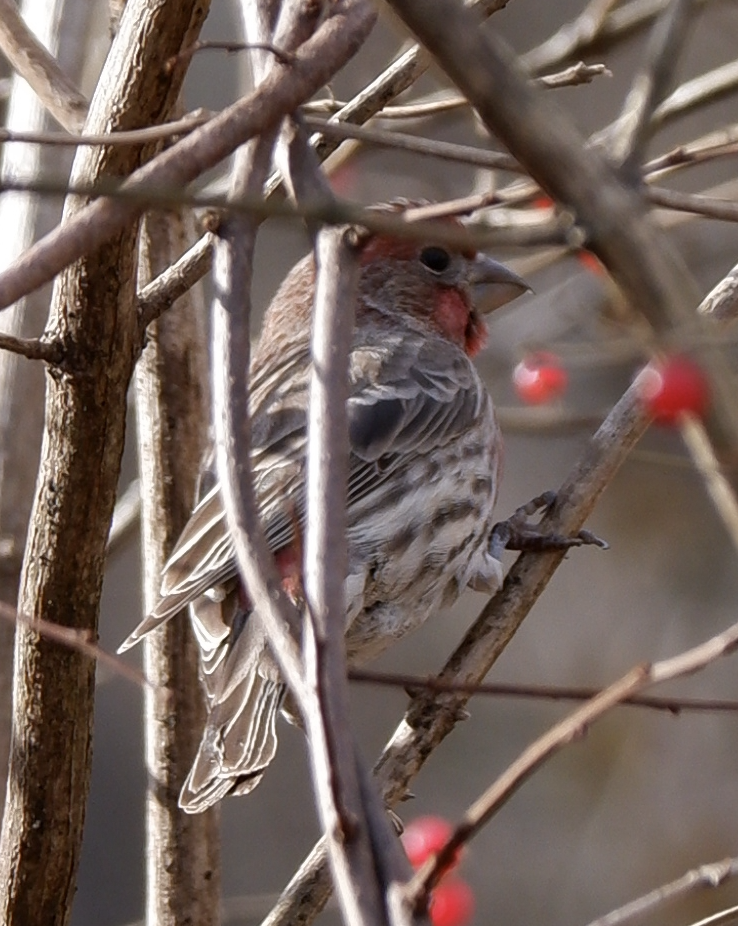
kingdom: Animalia
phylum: Chordata
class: Aves
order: Passeriformes
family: Fringillidae
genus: Haemorhous
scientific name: Haemorhous mexicanus
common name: House finch
